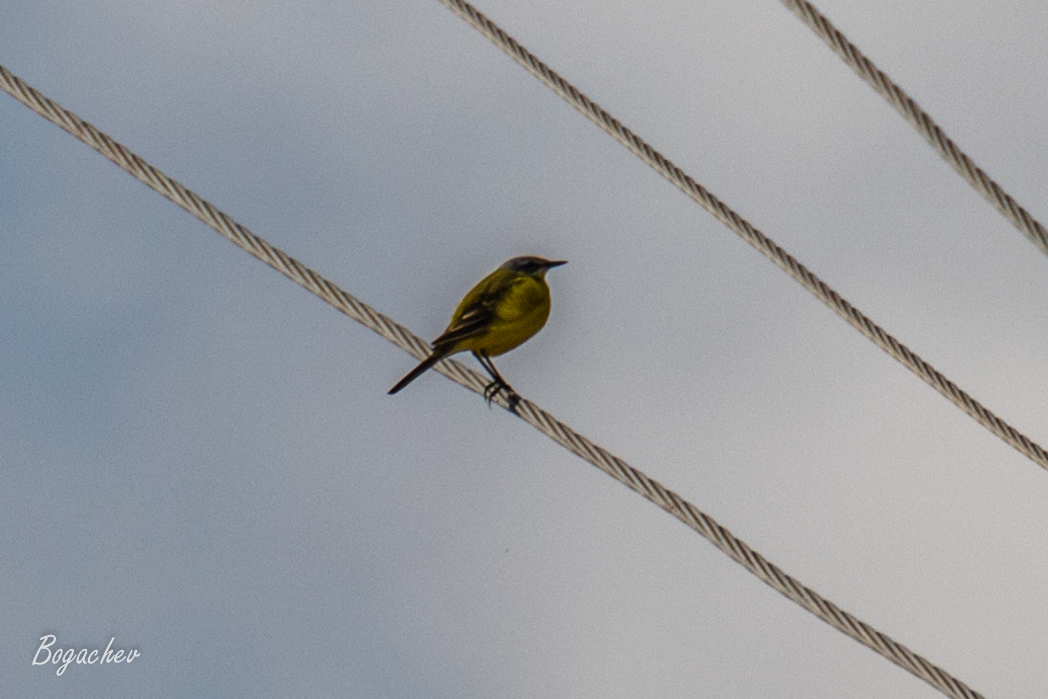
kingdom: Animalia
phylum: Chordata
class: Aves
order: Passeriformes
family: Motacillidae
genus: Motacilla
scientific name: Motacilla flava
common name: Western yellow wagtail
